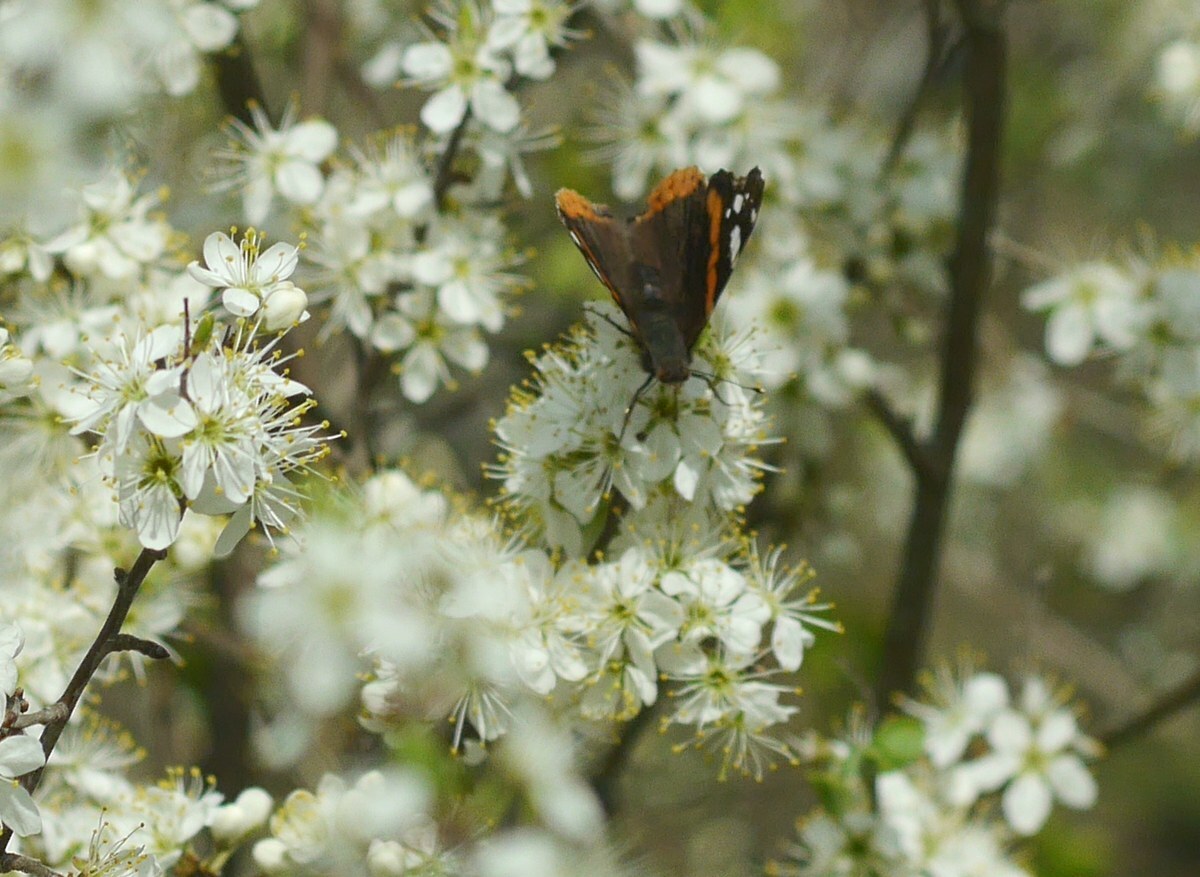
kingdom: Animalia
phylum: Arthropoda
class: Insecta
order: Lepidoptera
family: Nymphalidae
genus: Vanessa
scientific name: Vanessa atalanta
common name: Red admiral
